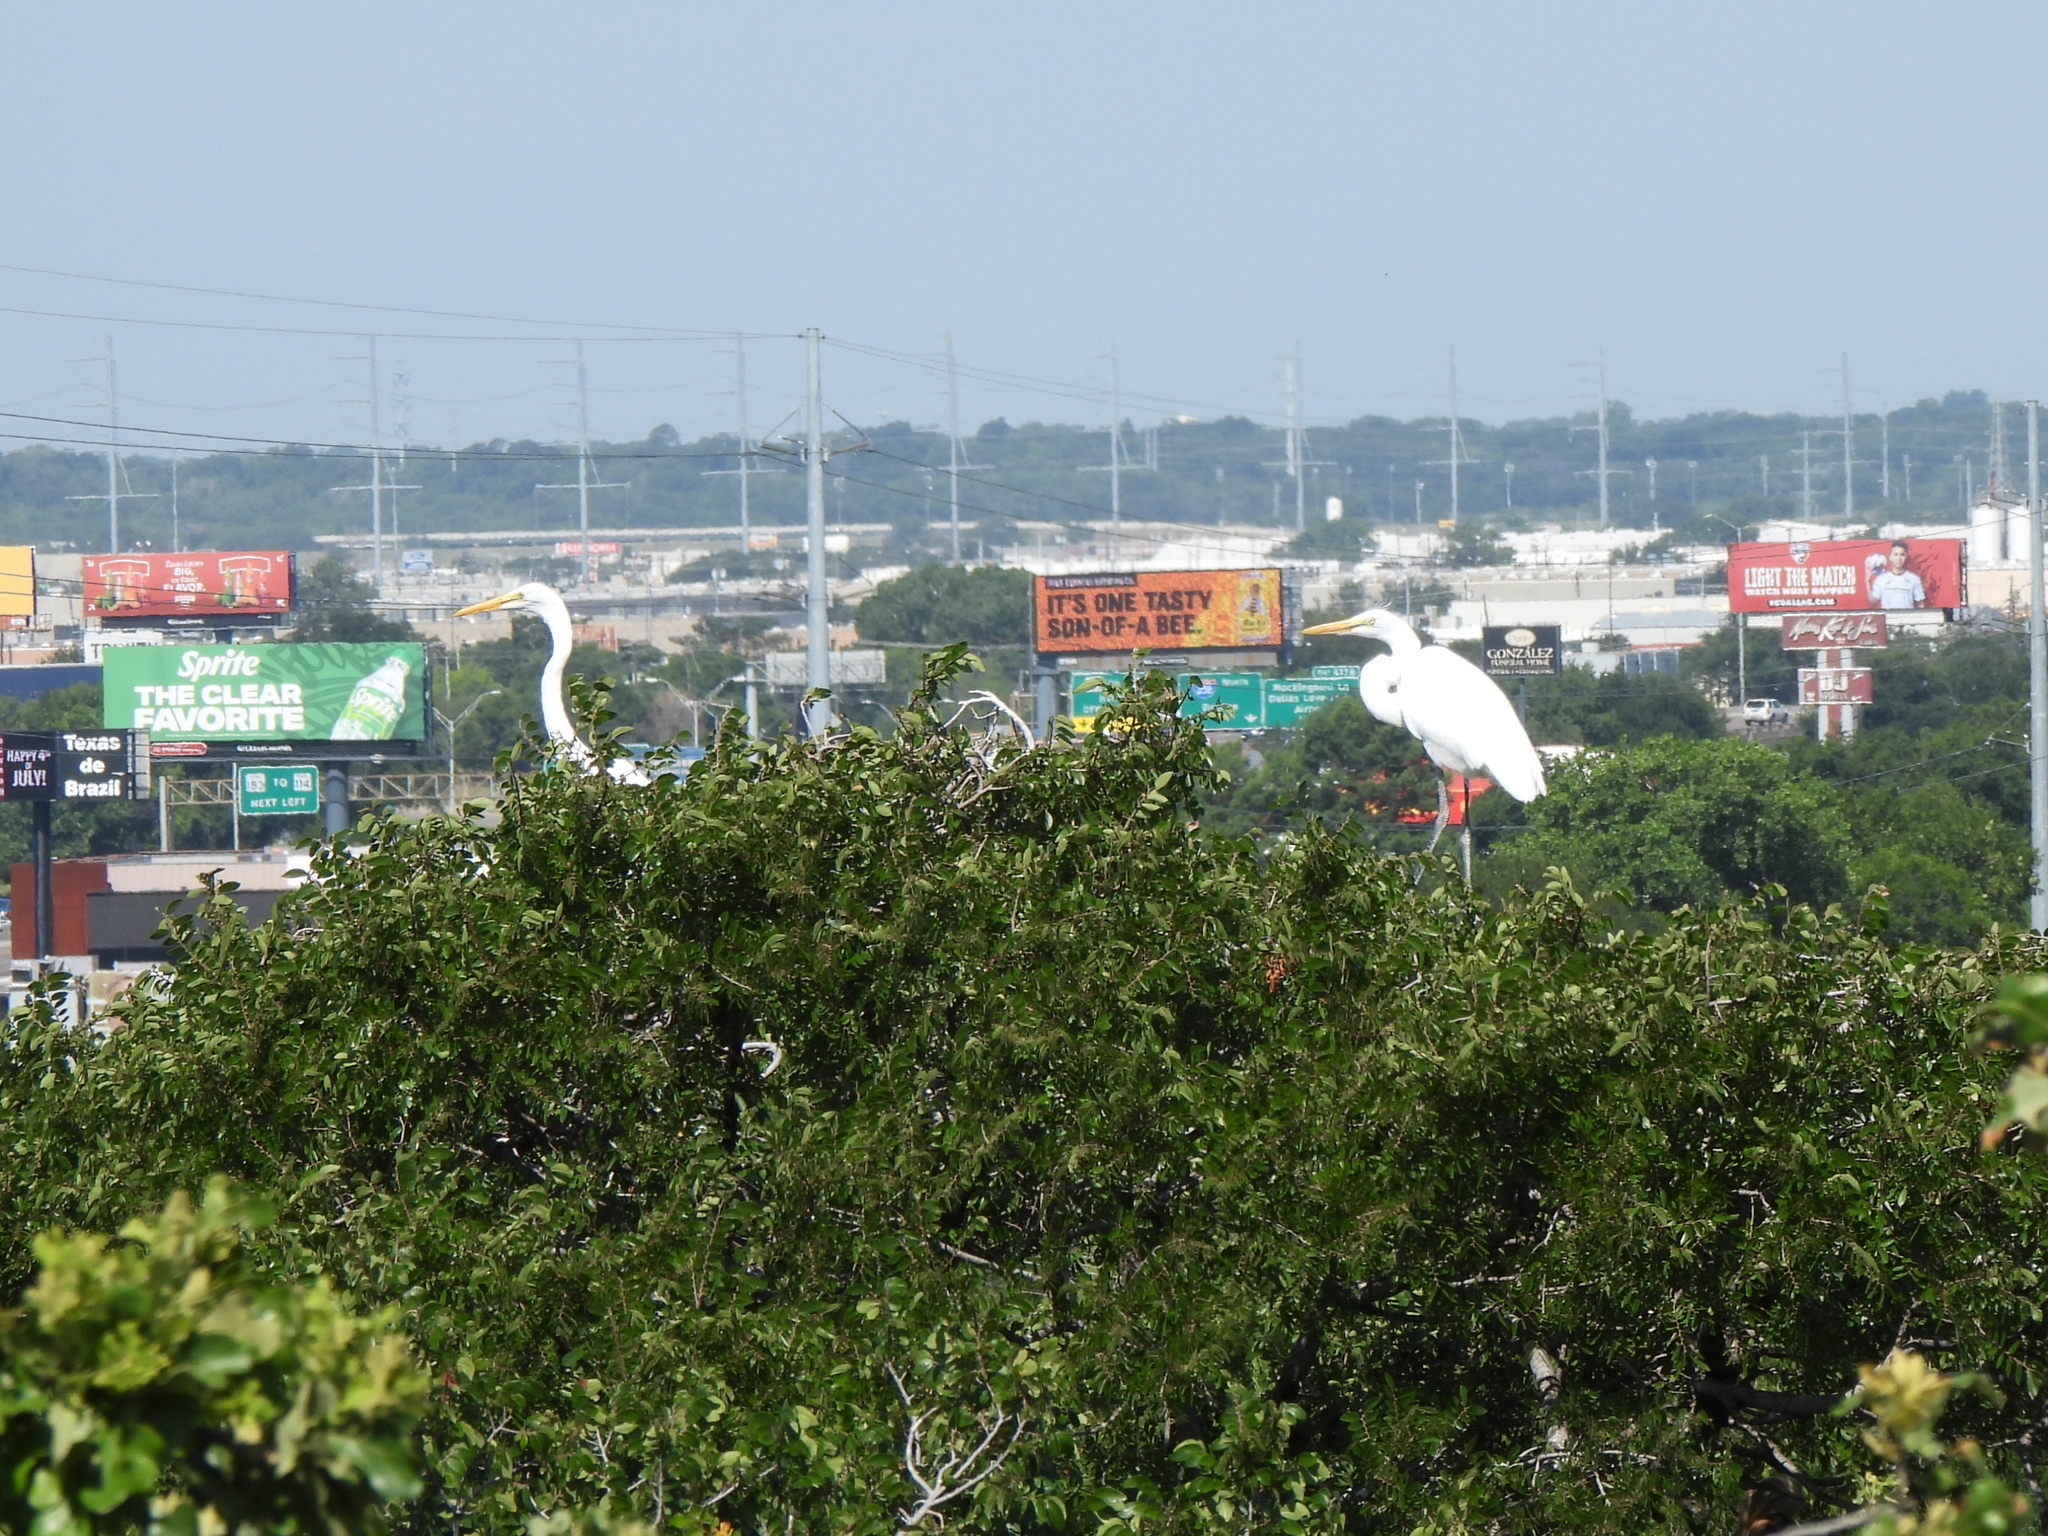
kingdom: Animalia
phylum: Chordata
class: Aves
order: Pelecaniformes
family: Ardeidae
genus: Ardea
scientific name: Ardea alba
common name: Great egret
